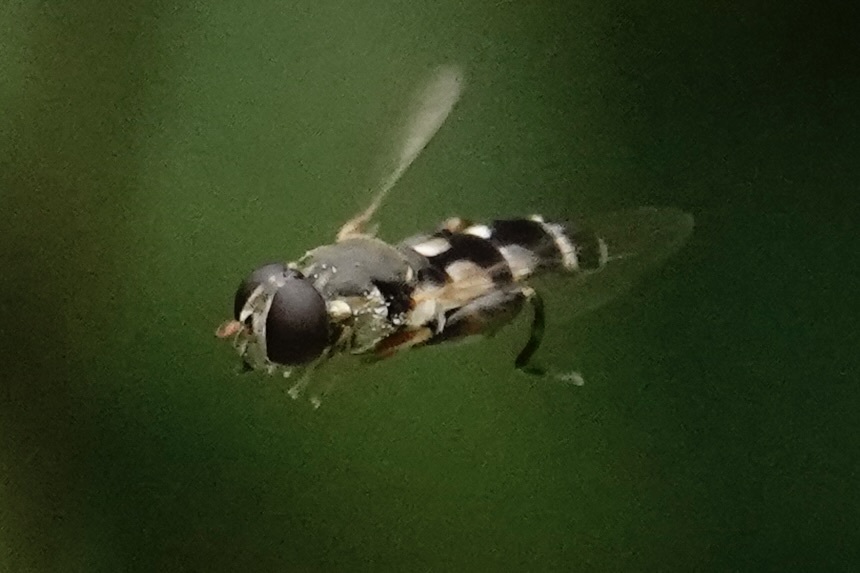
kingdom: Animalia
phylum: Arthropoda
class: Insecta
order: Diptera
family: Syrphidae
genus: Syritta
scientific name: Syritta pipiens
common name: Hover fly
